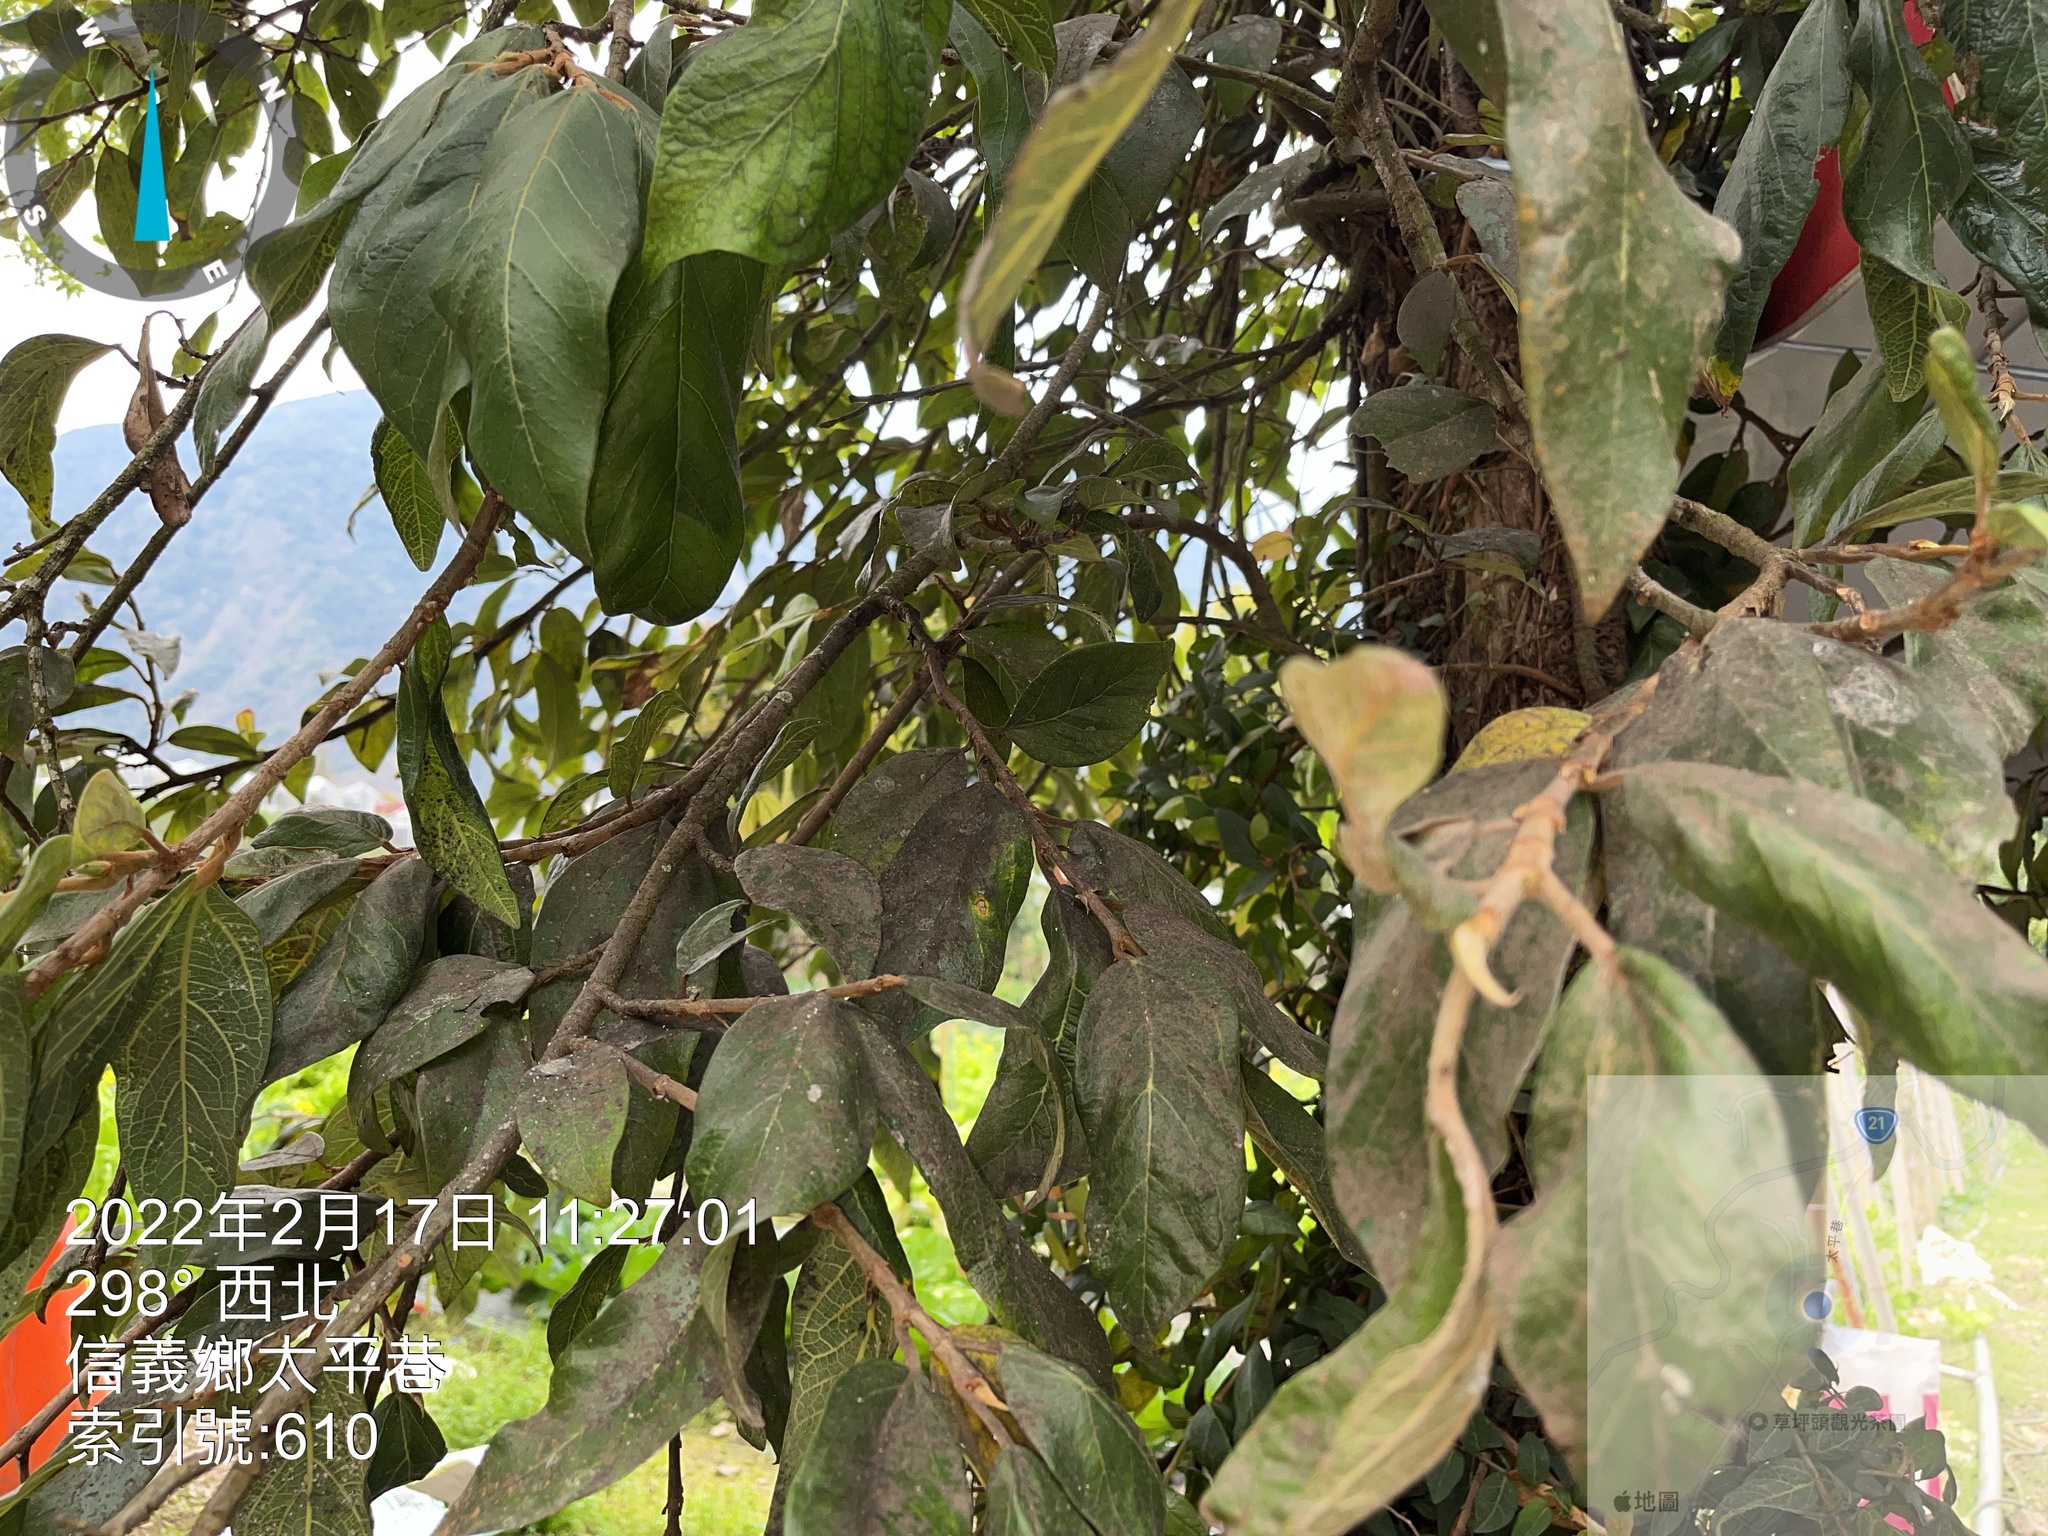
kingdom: Plantae
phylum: Tracheophyta
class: Magnoliopsida
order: Rosales
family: Moraceae
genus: Ficus
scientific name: Ficus pumila
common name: Climbingfig
